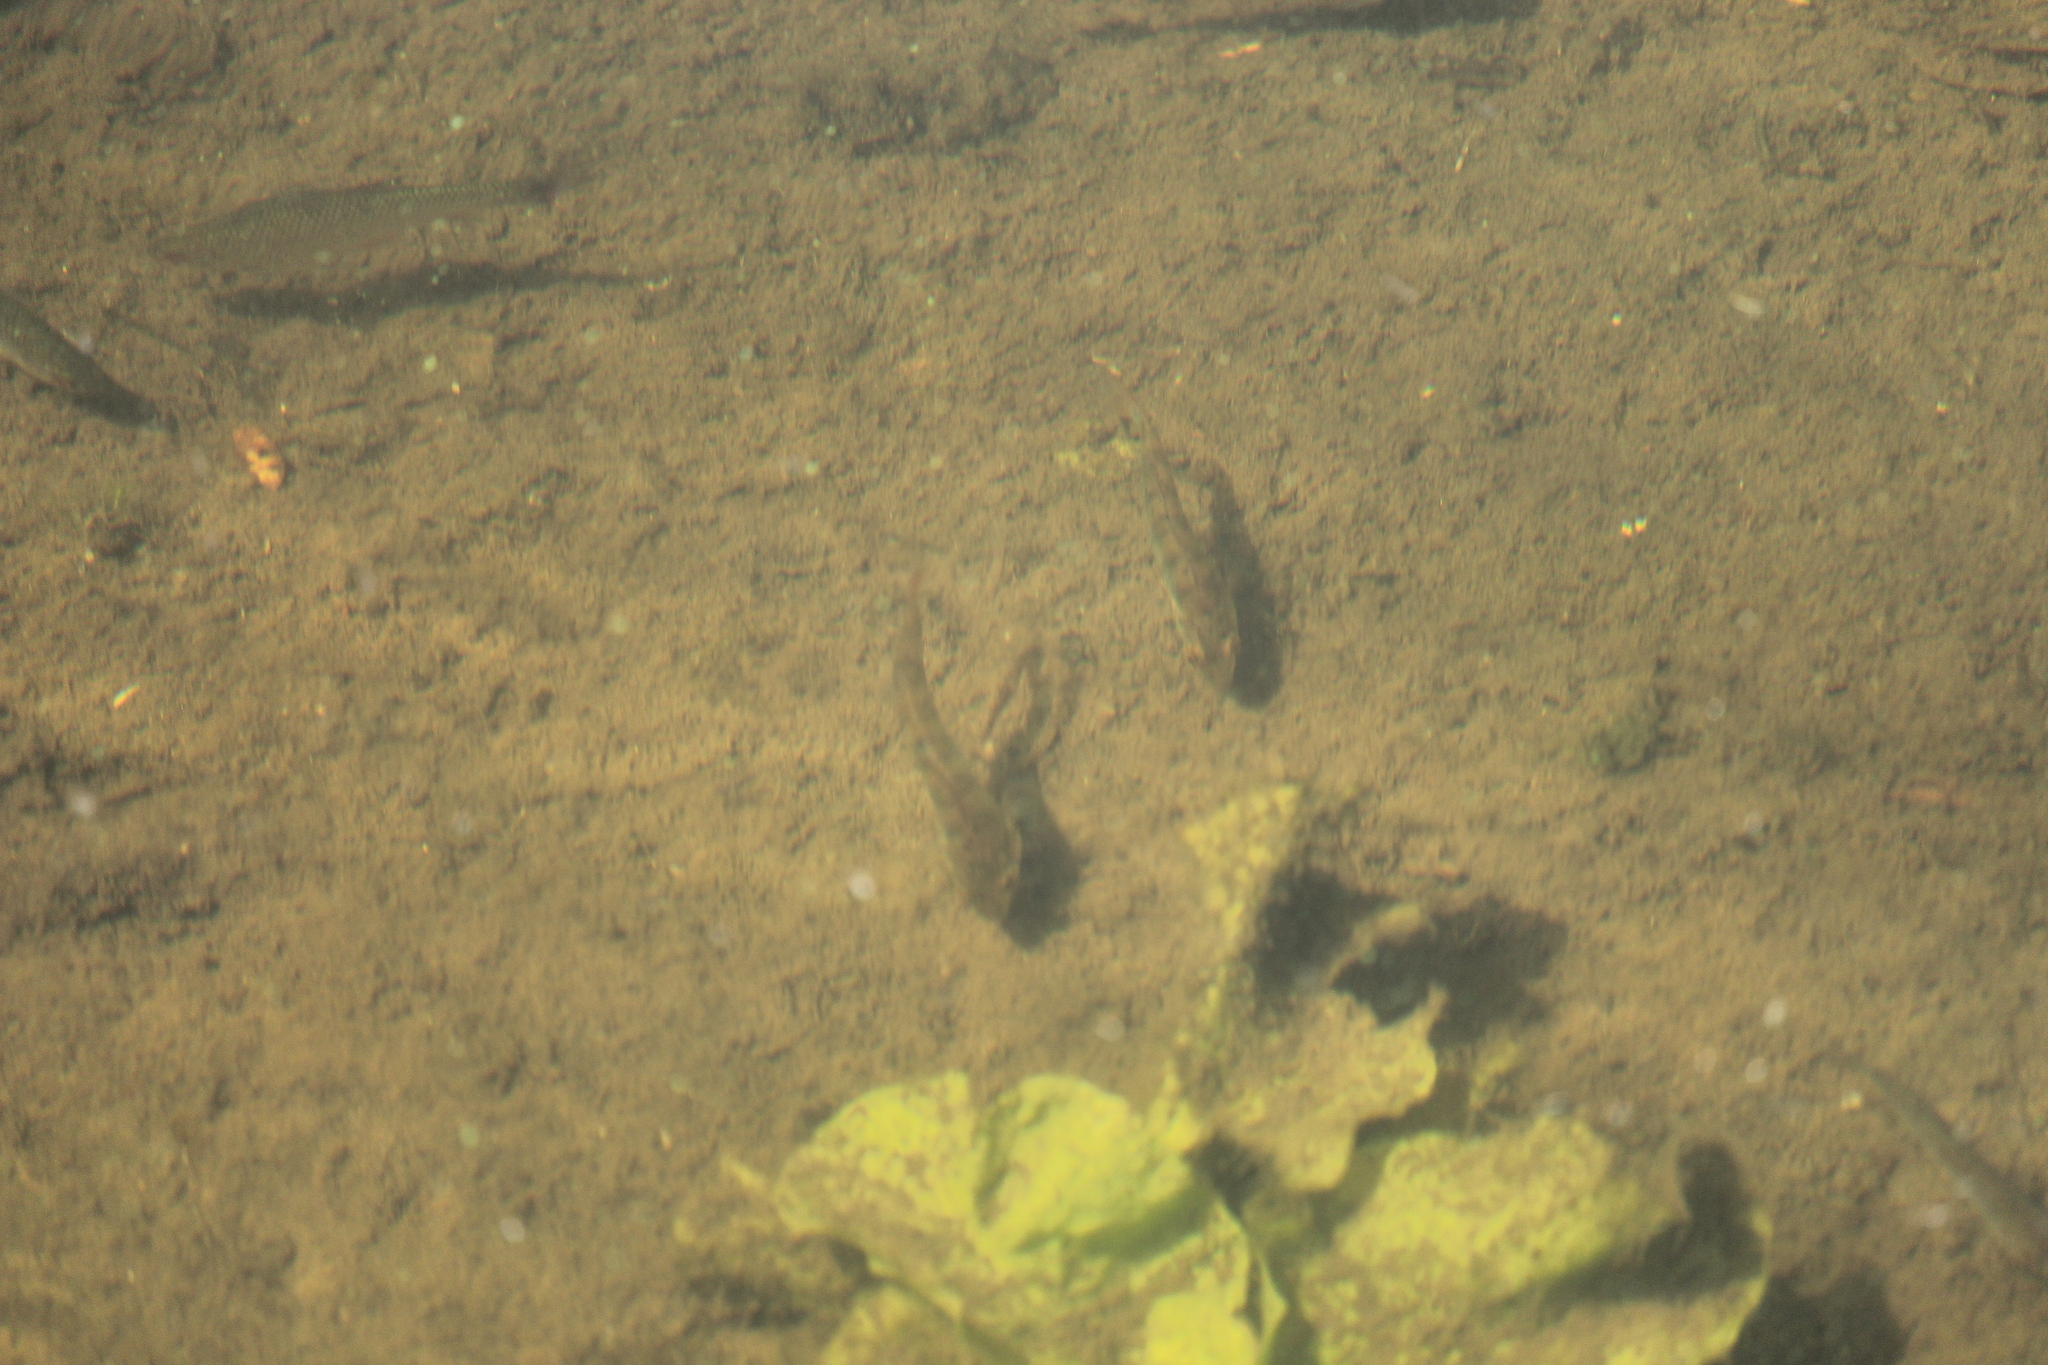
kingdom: Animalia
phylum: Chordata
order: Perciformes
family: Percidae
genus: Perca
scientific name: Perca fluviatilis
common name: Perch
